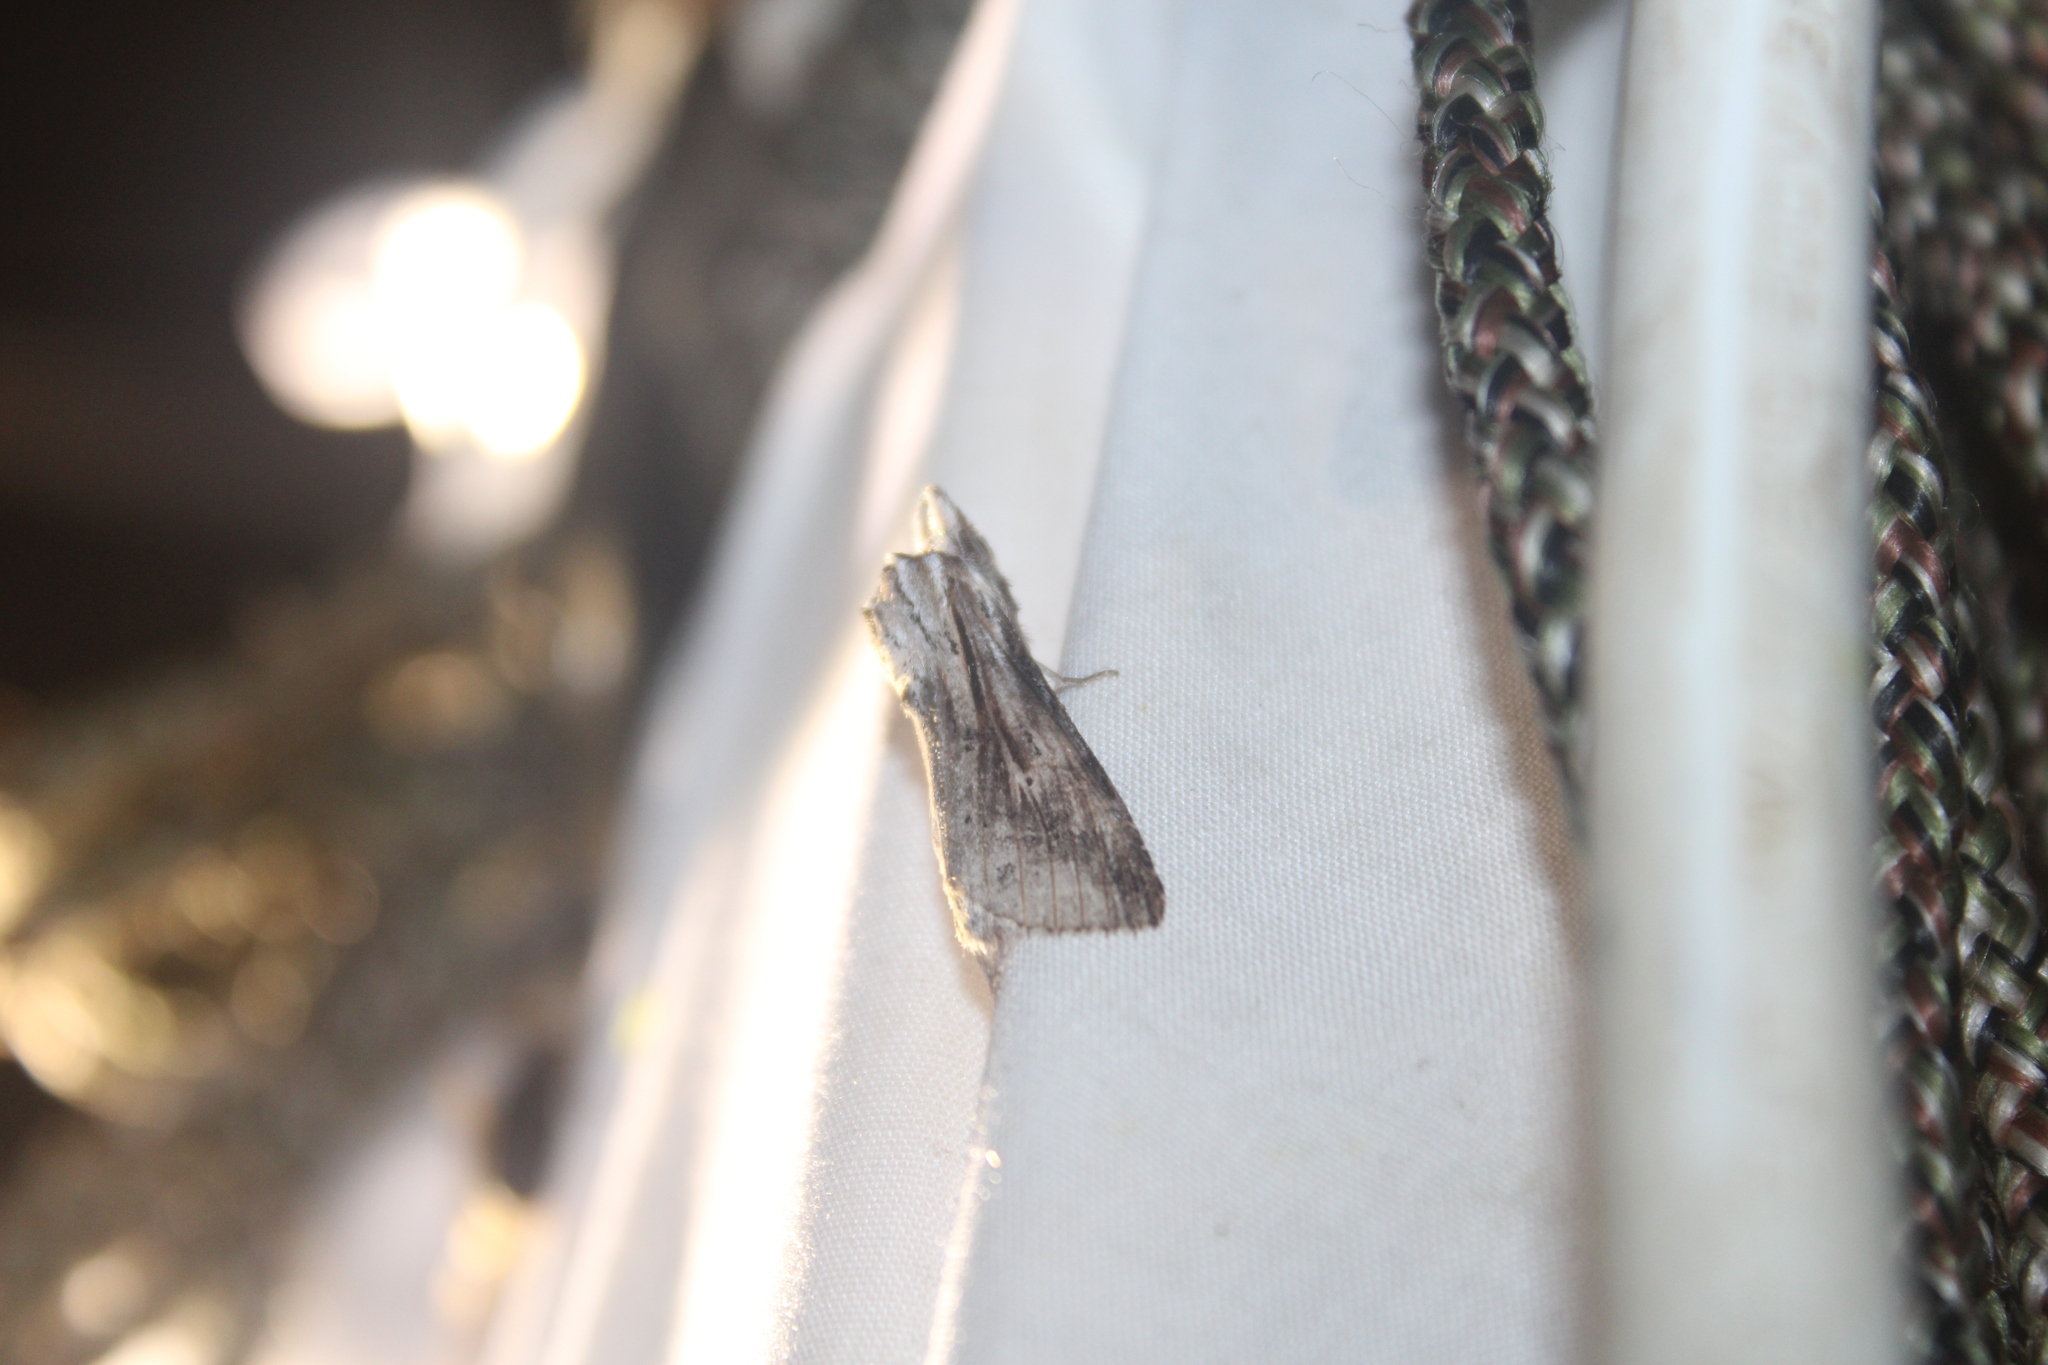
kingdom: Animalia
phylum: Arthropoda
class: Insecta
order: Lepidoptera
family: Notodontidae
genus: Dasylophia
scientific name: Dasylophia anguina
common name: Black-spotted prominent
